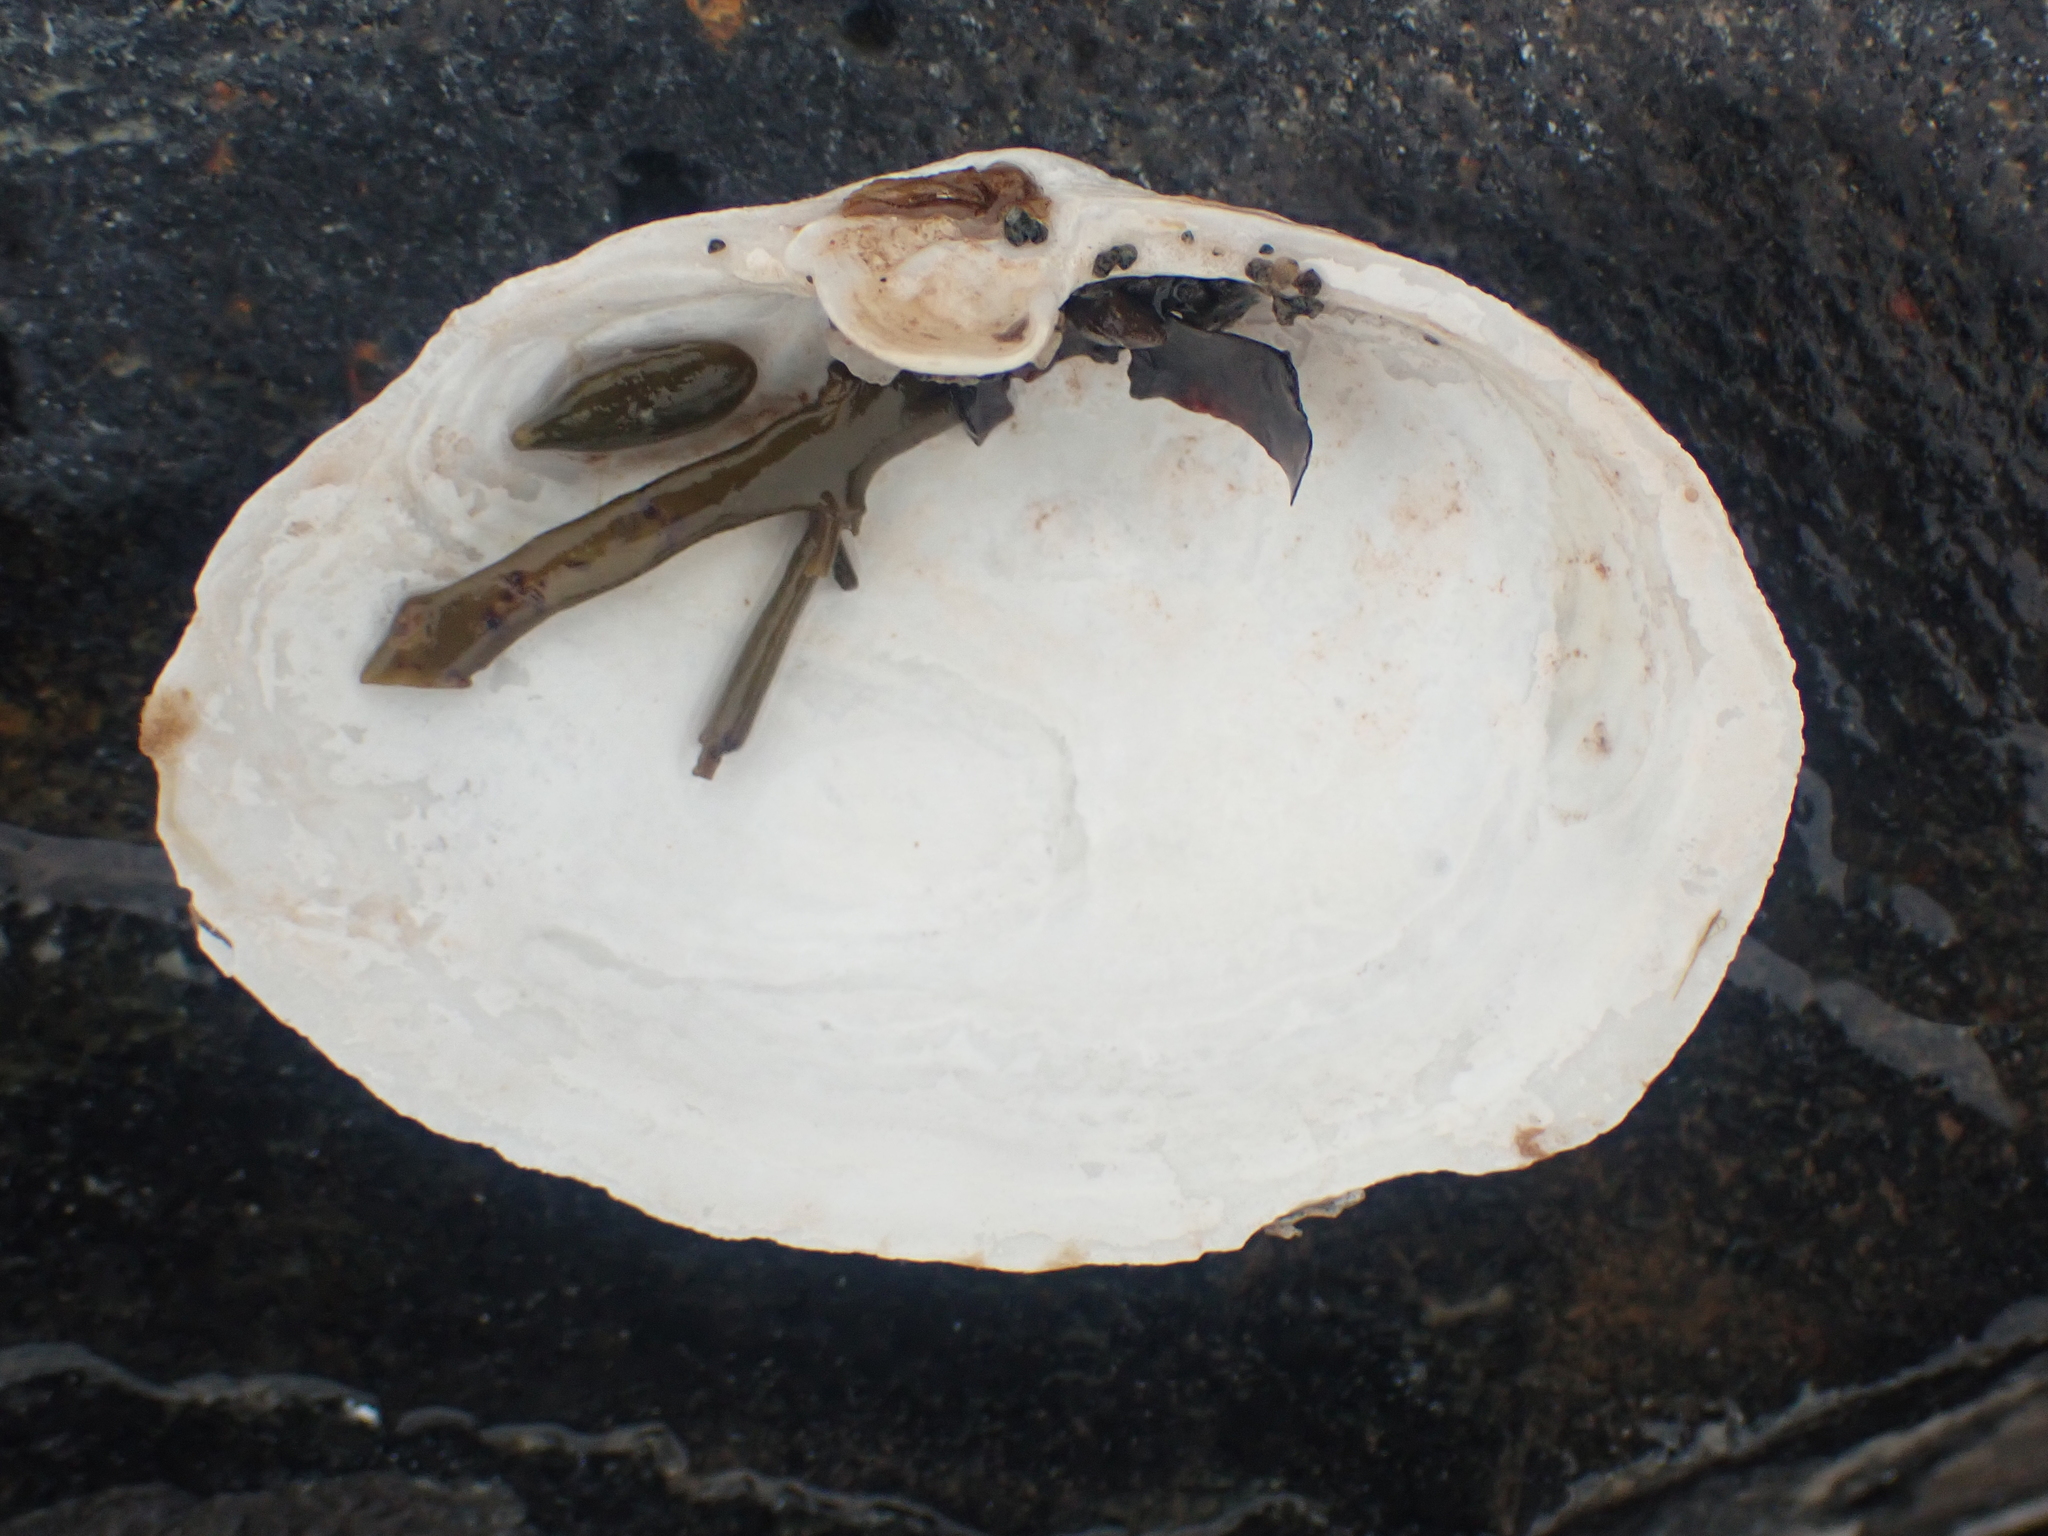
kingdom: Animalia
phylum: Mollusca
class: Bivalvia
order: Myida
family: Myidae
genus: Mya
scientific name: Mya arenaria
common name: Soft-shelled clam
